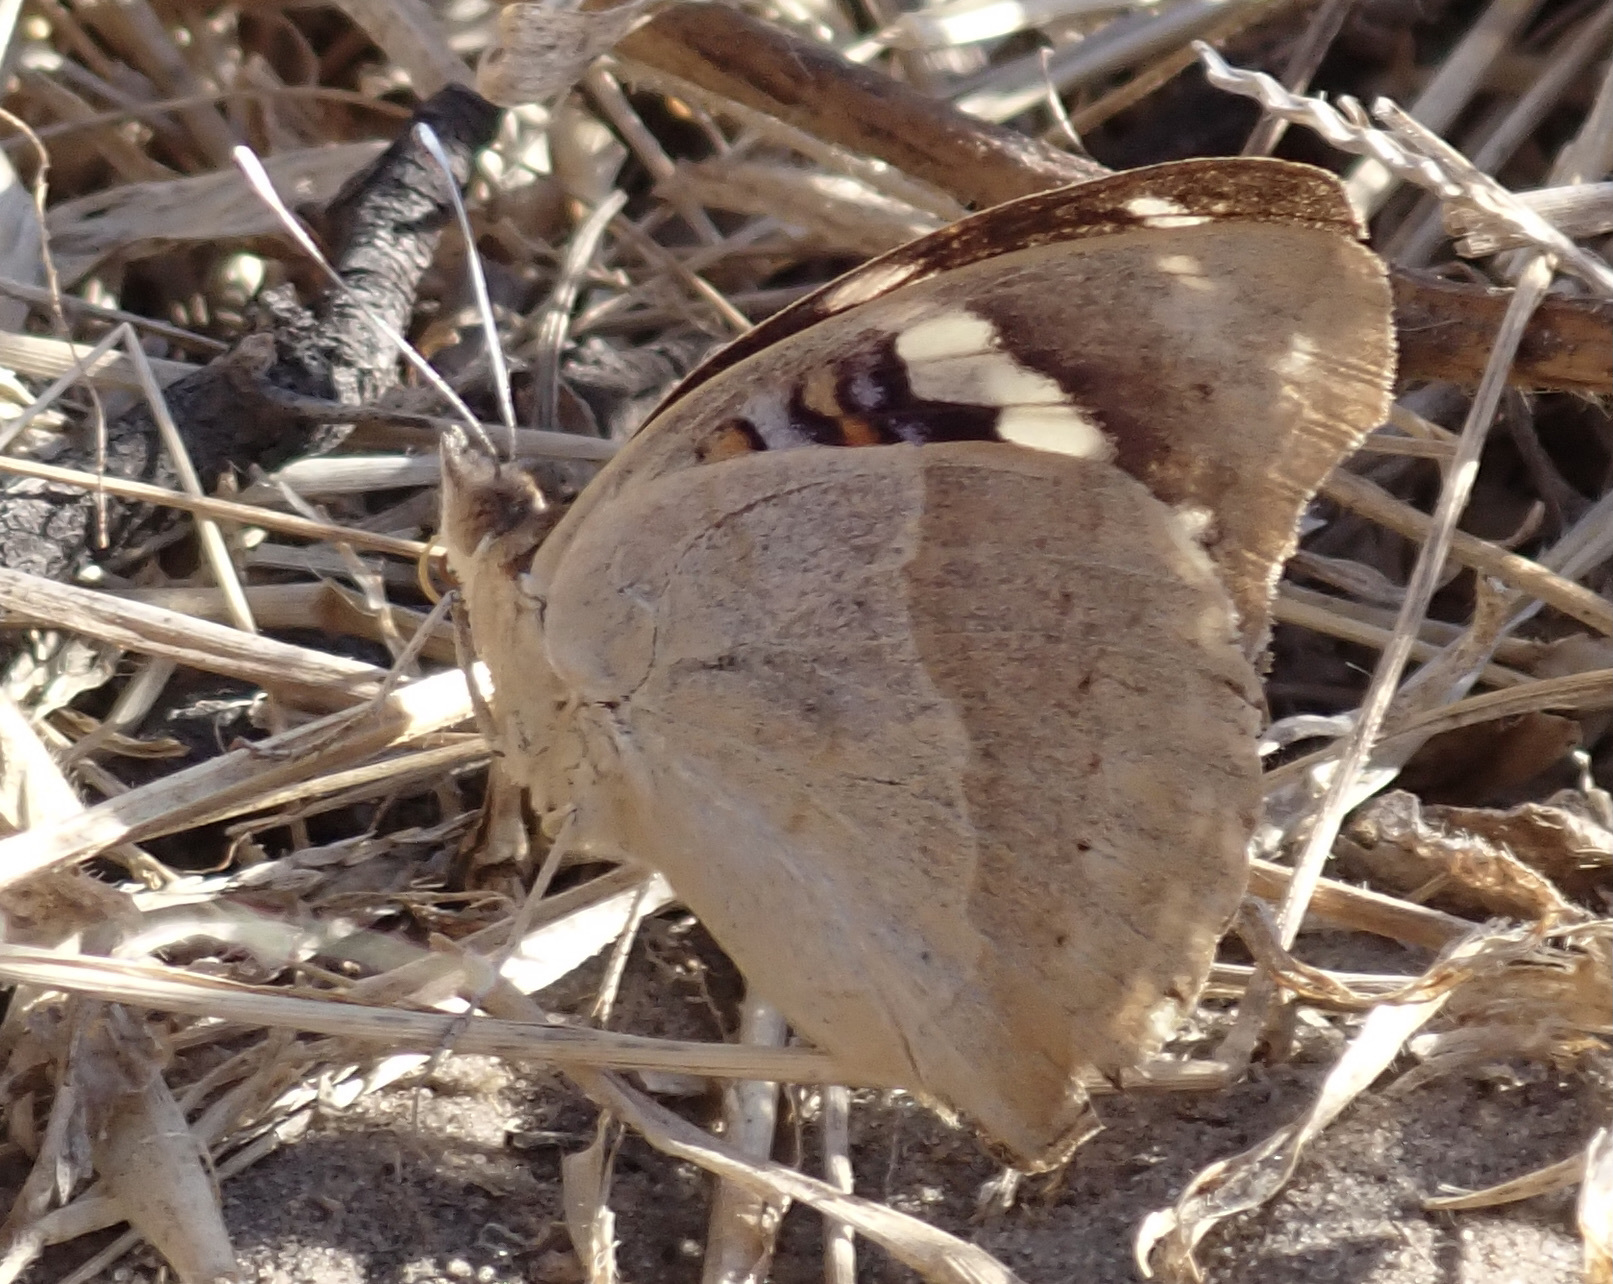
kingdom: Animalia
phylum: Arthropoda
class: Insecta
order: Lepidoptera
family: Nymphalidae
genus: Junonia
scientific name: Junonia oenone
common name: Dark blue pansy
